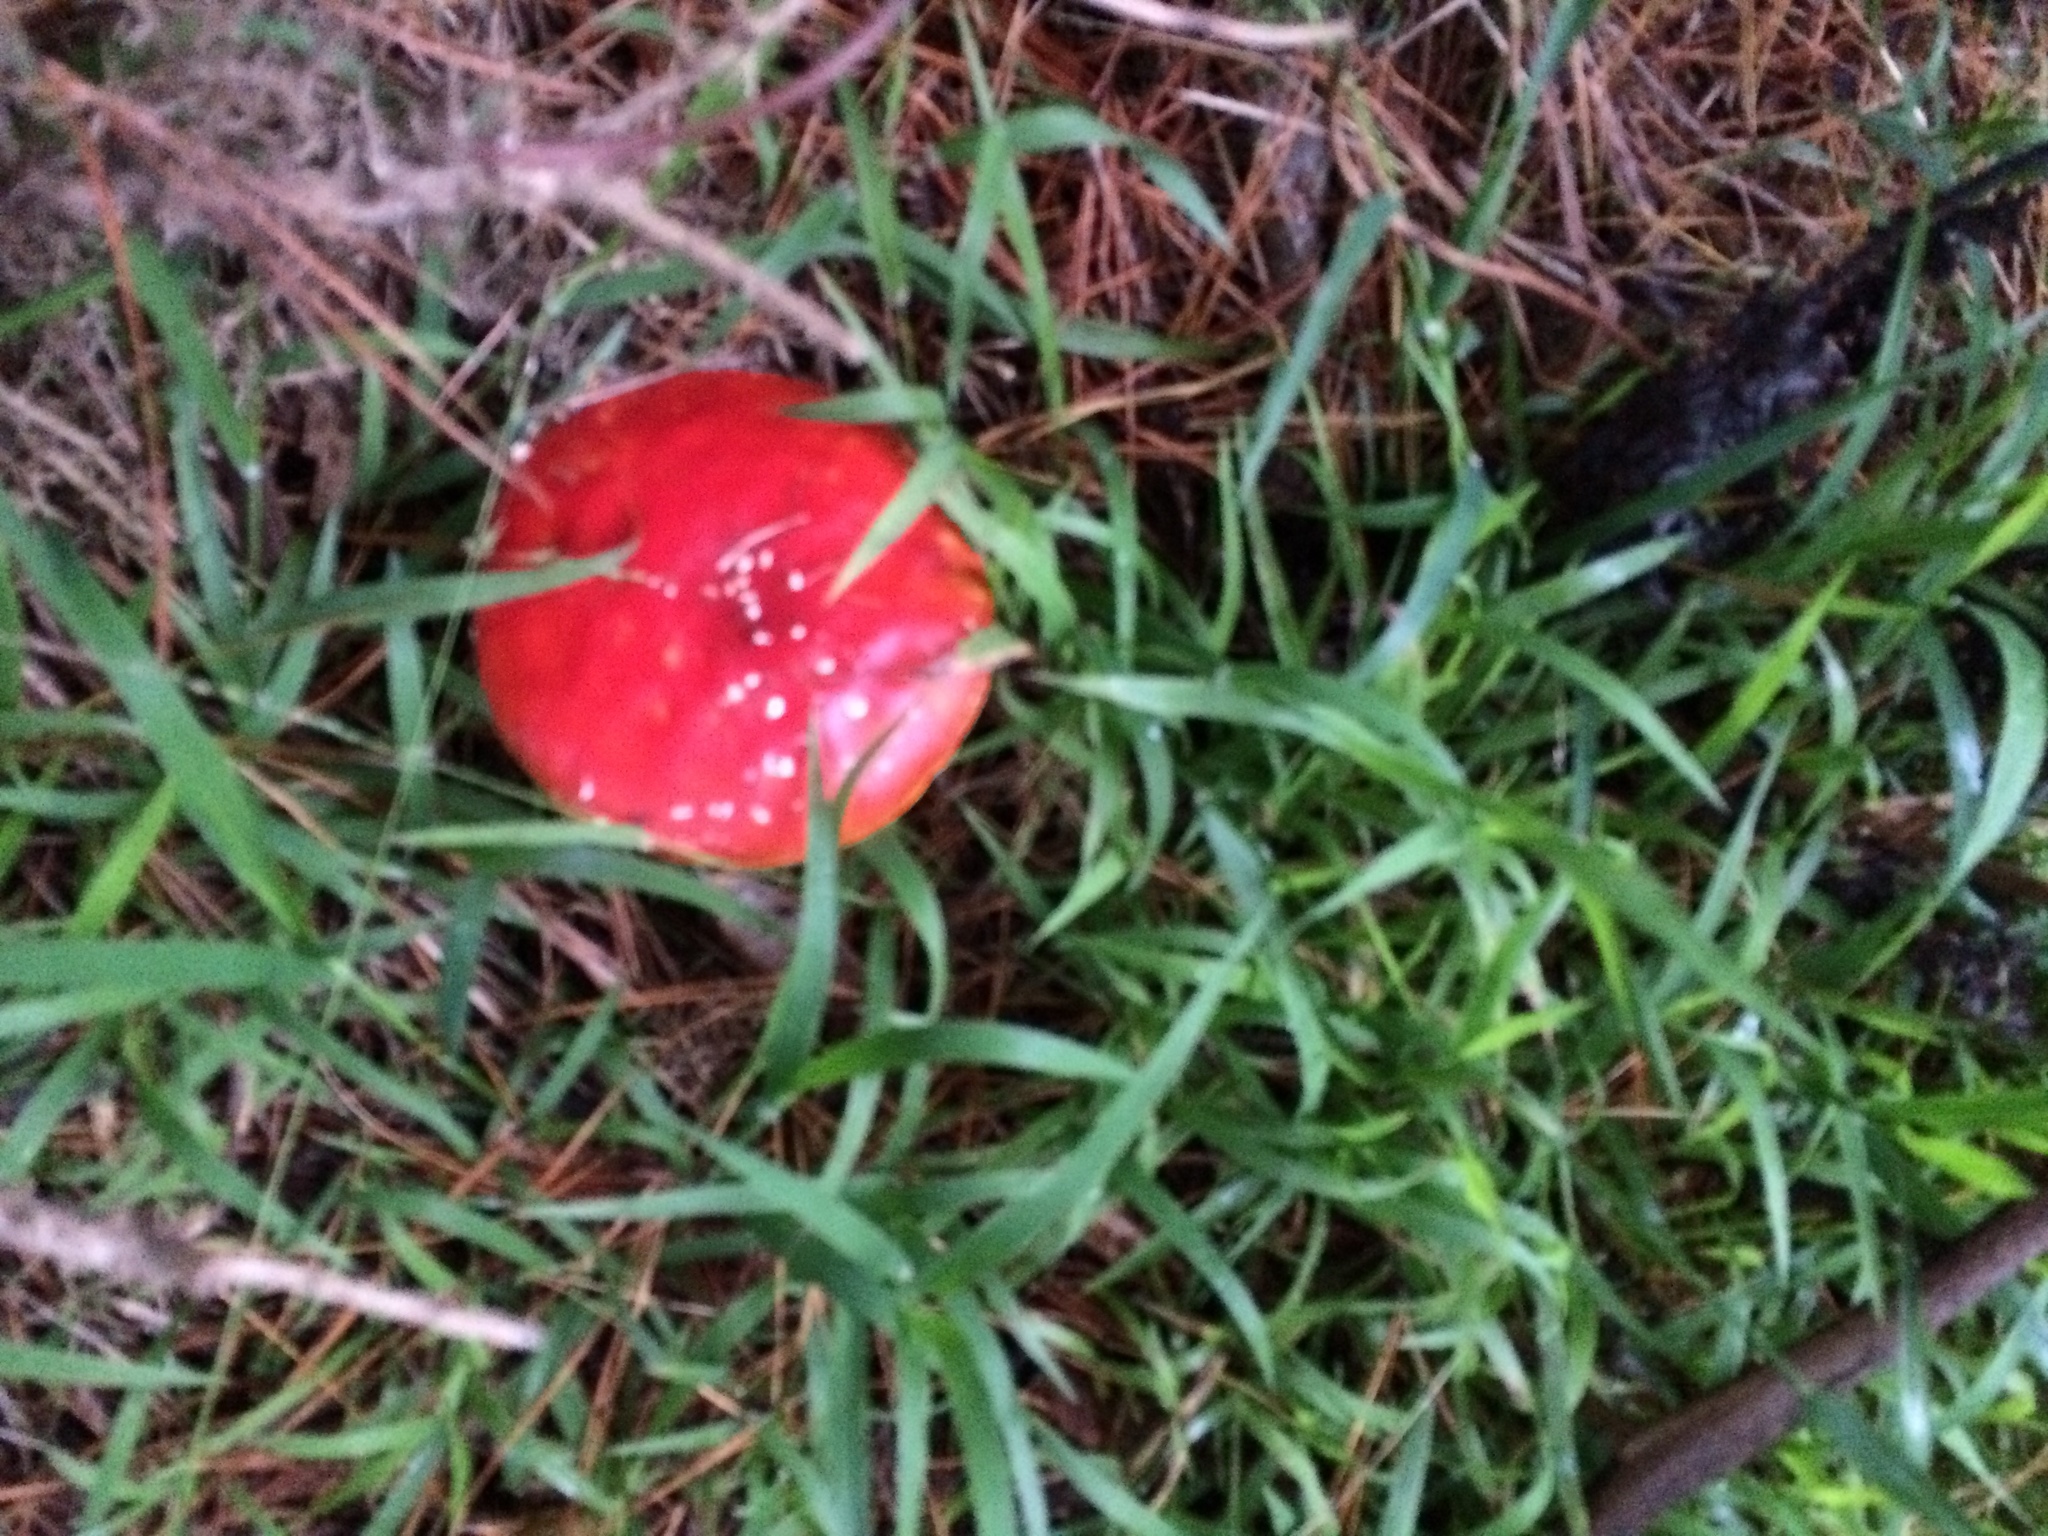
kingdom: Fungi
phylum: Basidiomycota
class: Agaricomycetes
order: Agaricales
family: Amanitaceae
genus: Amanita
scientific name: Amanita muscaria
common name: Fly agaric
